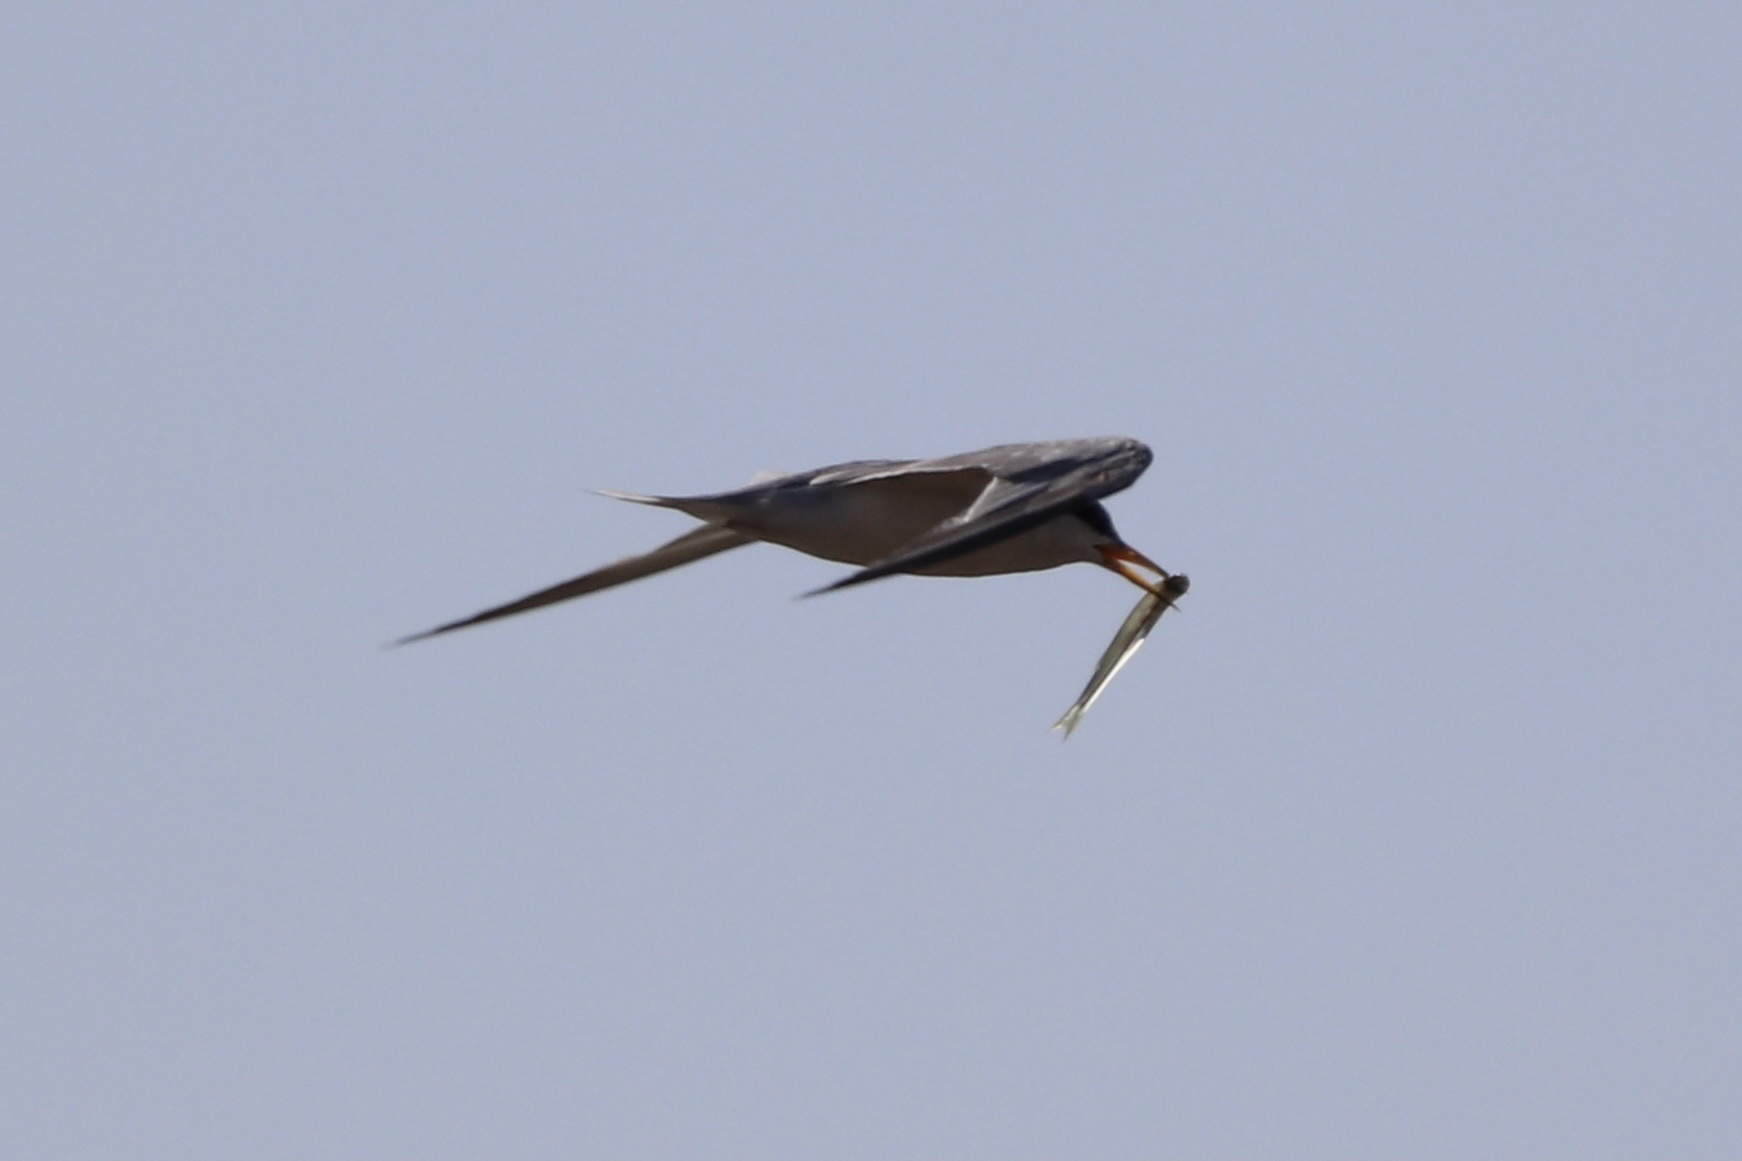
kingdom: Animalia
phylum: Chordata
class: Aves
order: Charadriiformes
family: Laridae
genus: Sternula
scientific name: Sternula antillarum
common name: Least tern
